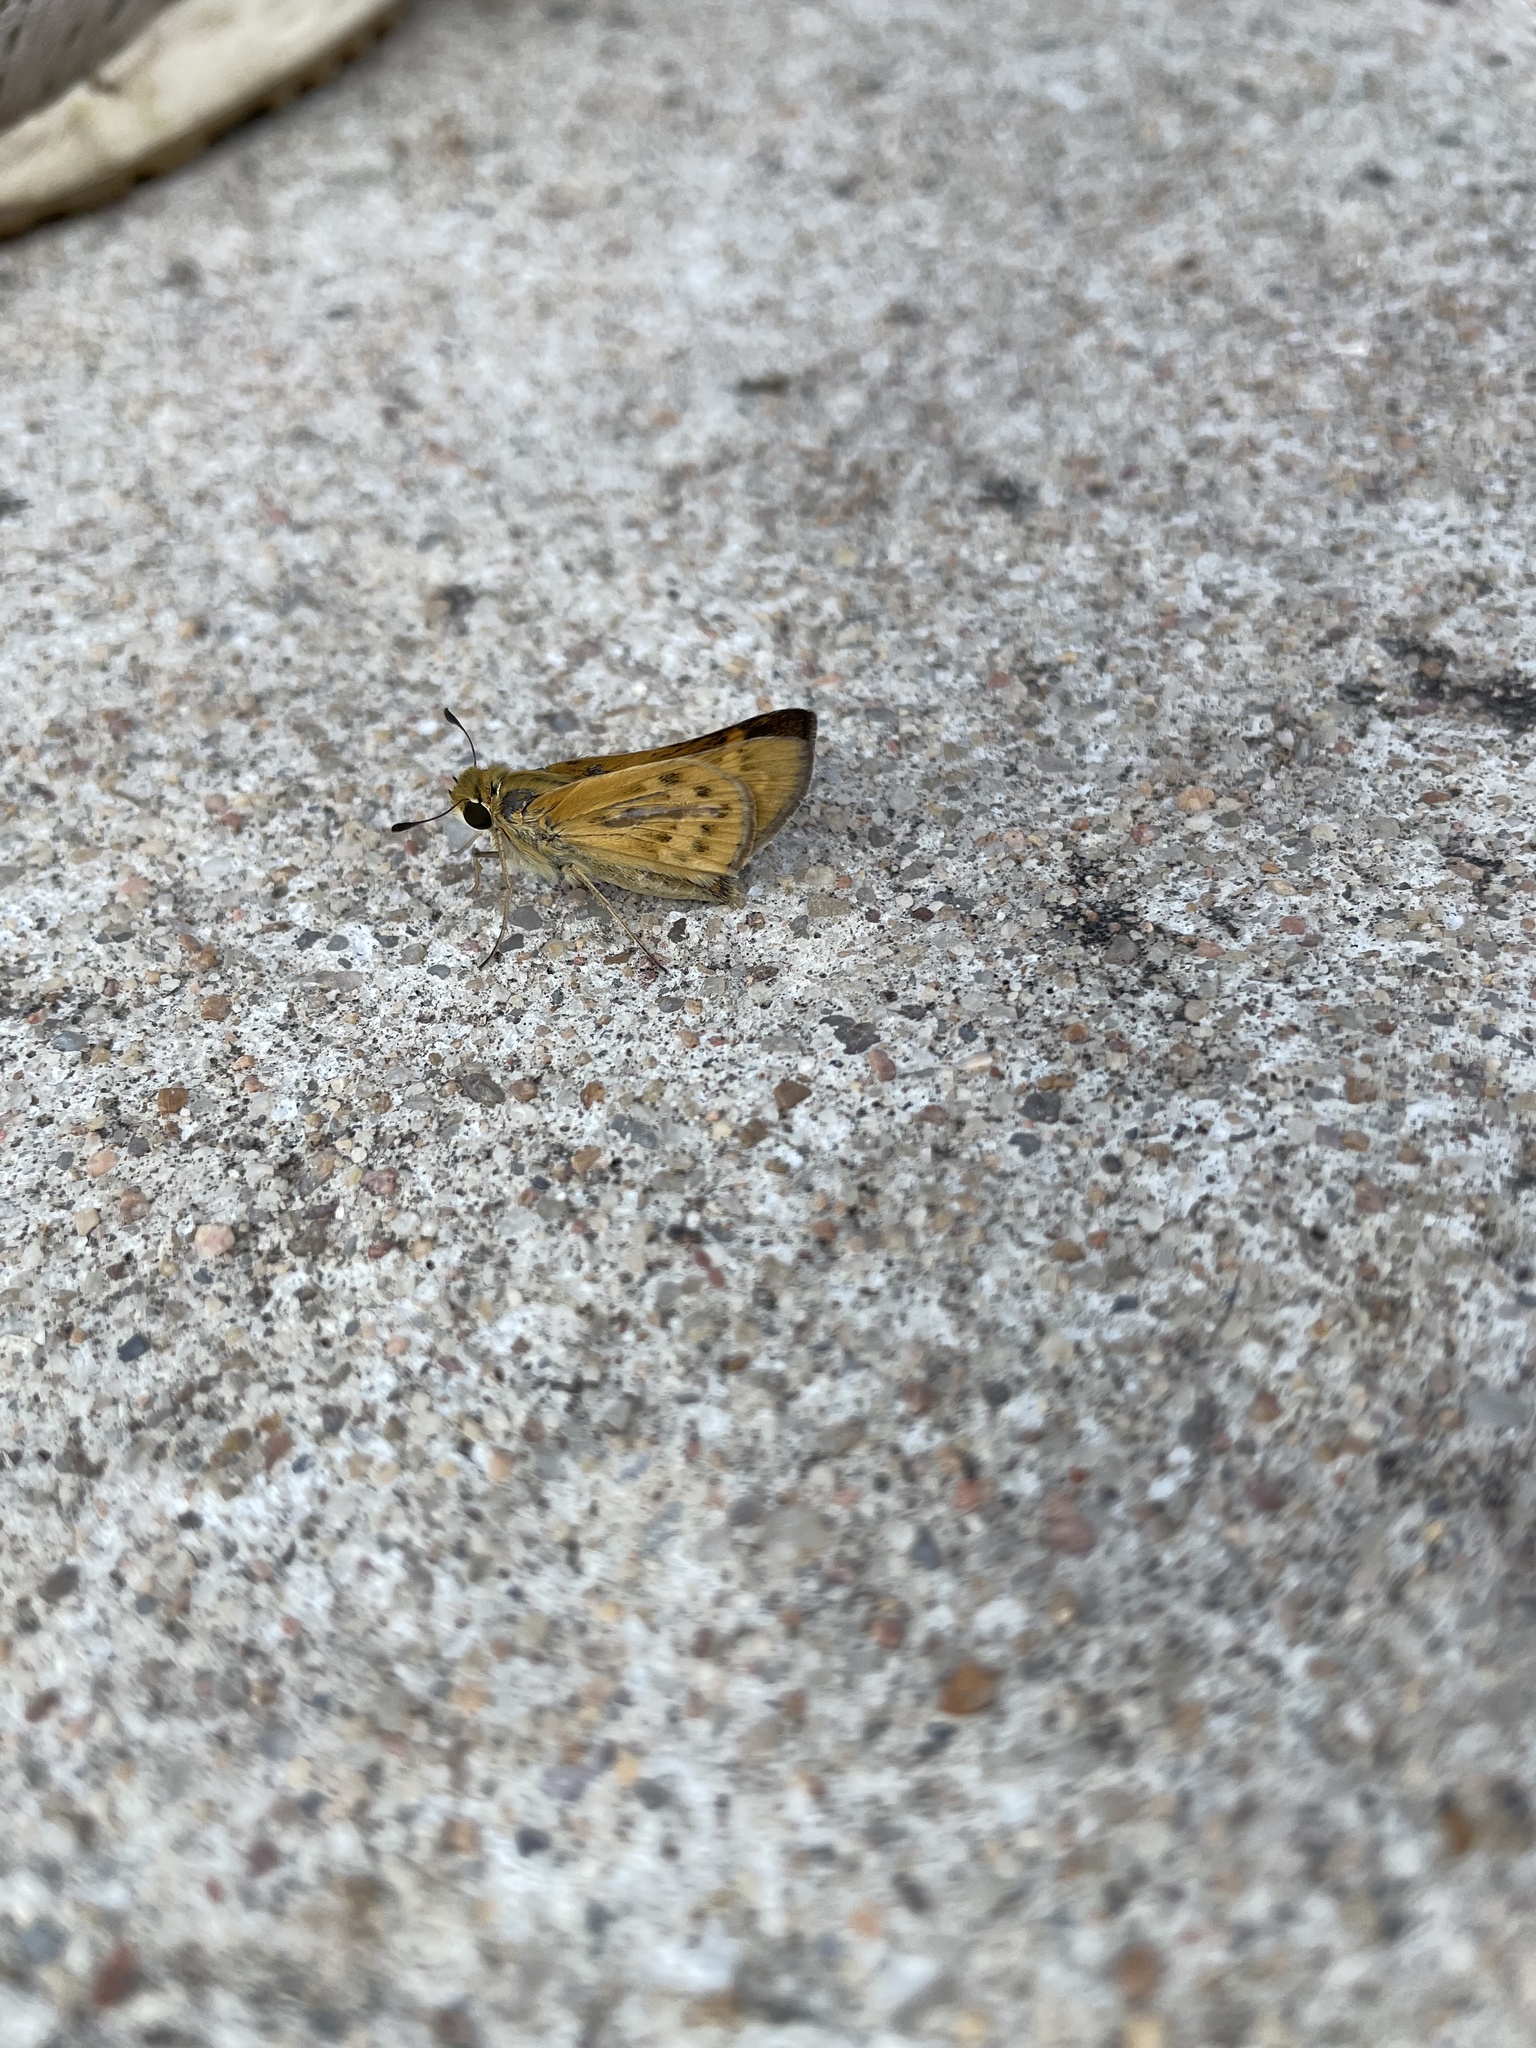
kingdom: Animalia
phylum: Arthropoda
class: Insecta
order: Lepidoptera
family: Hesperiidae
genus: Hylephila
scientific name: Hylephila phyleus
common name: Fiery skipper
